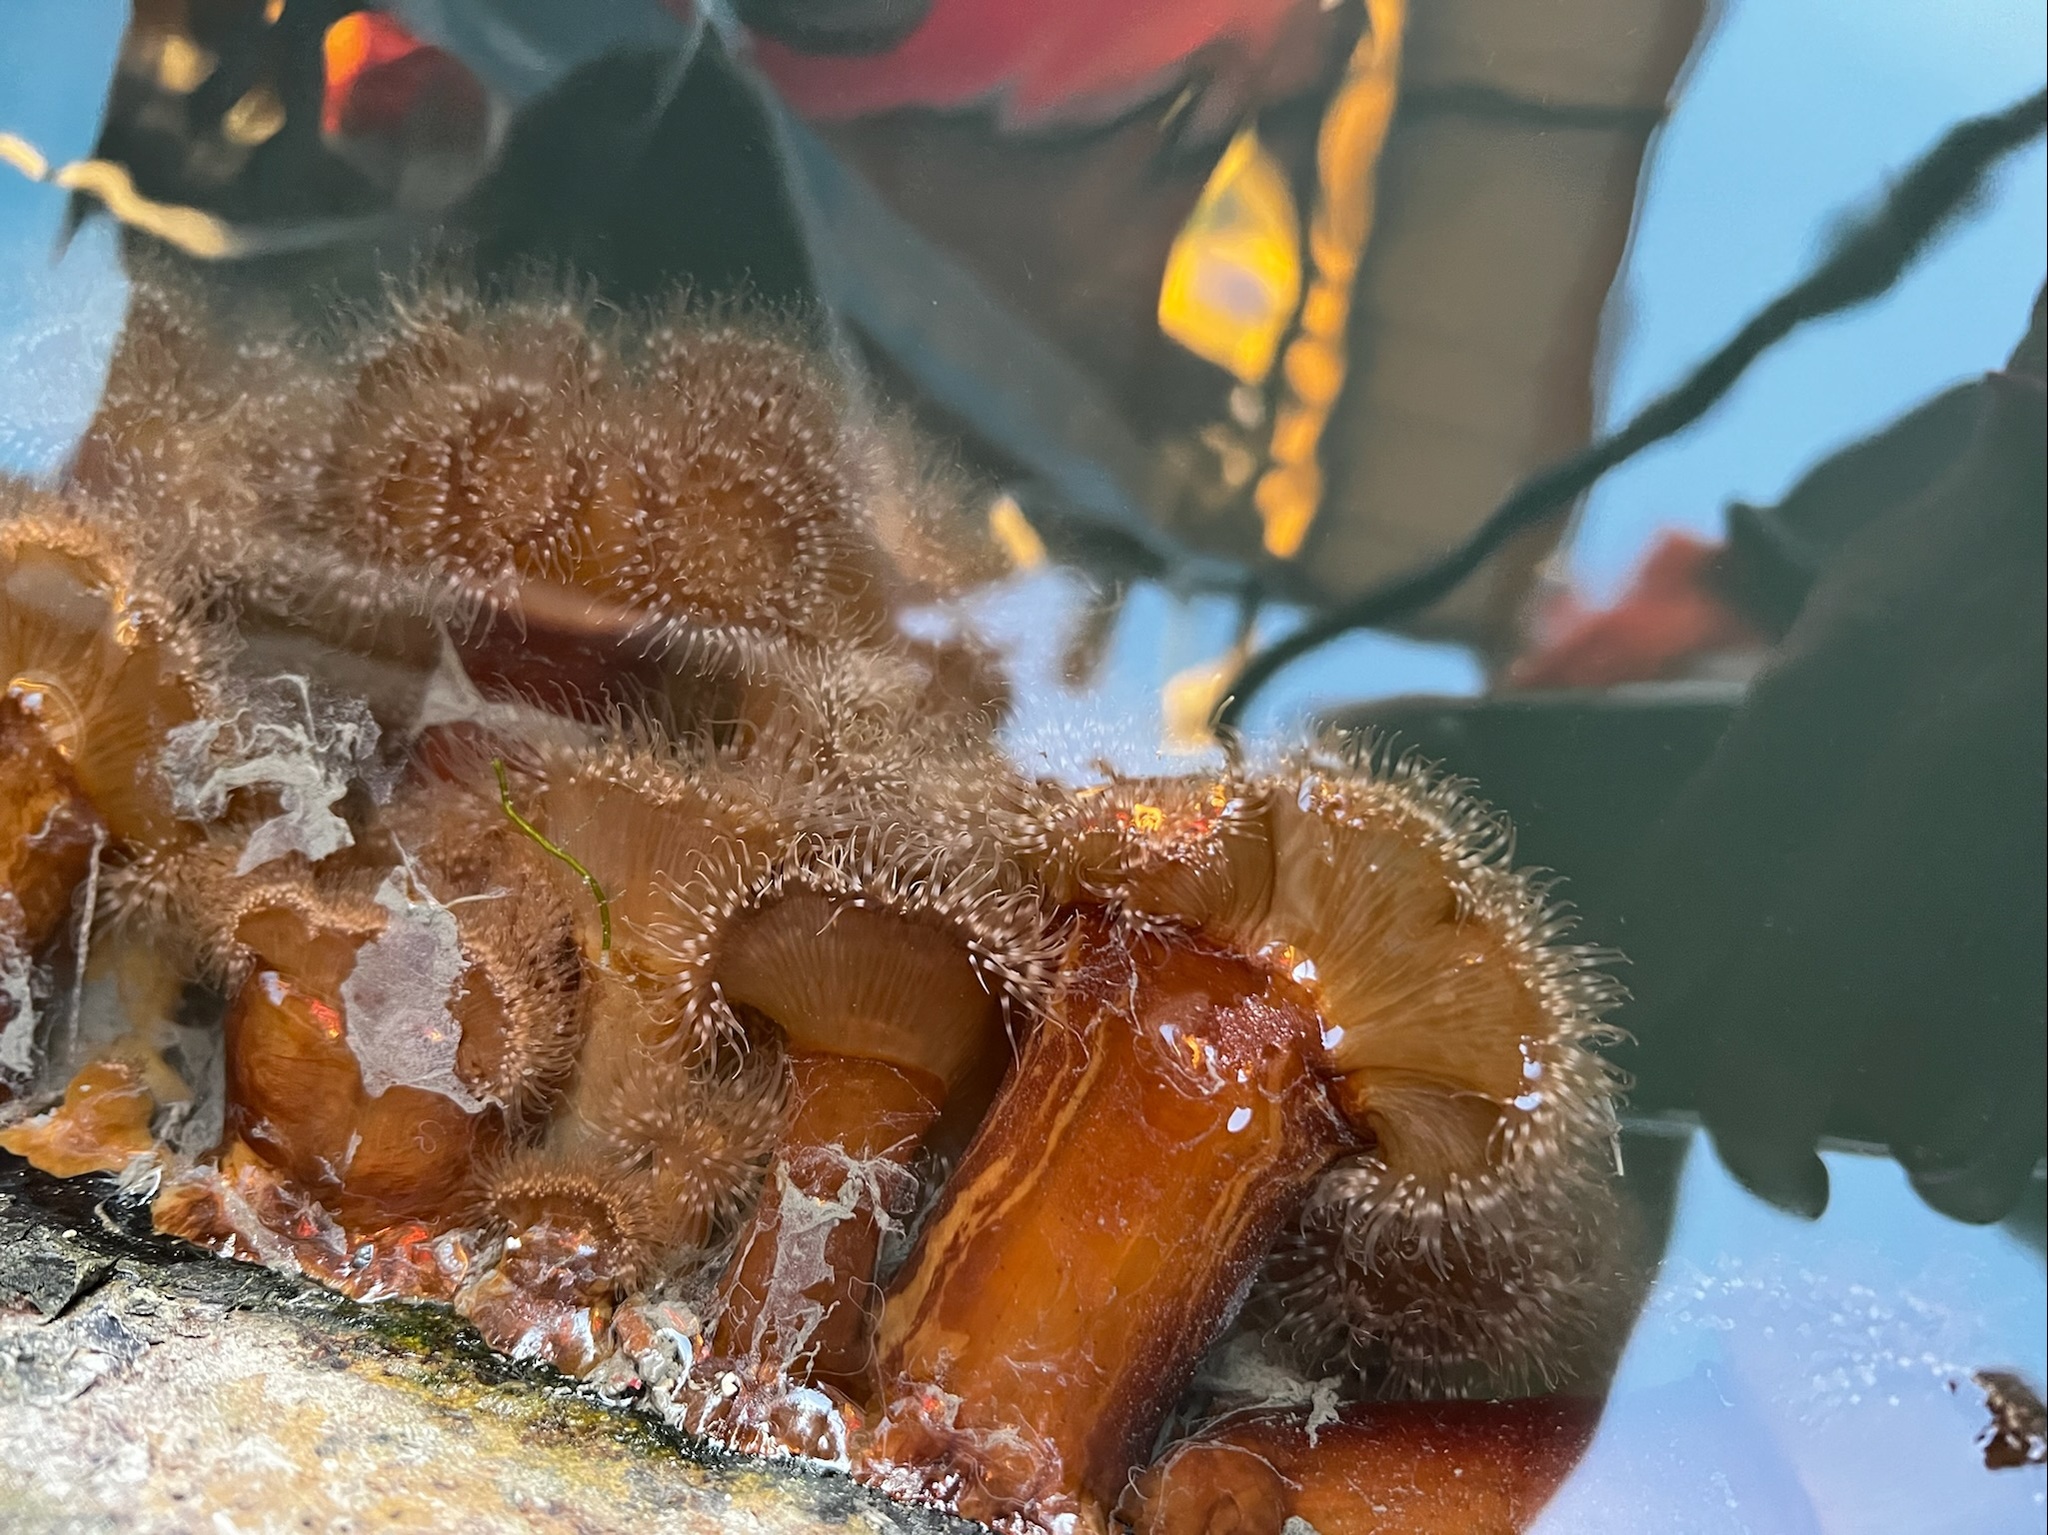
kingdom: Animalia
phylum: Cnidaria
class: Anthozoa
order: Actiniaria
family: Metridiidae
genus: Metridium
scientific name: Metridium senile
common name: Clonal plumose anemone
